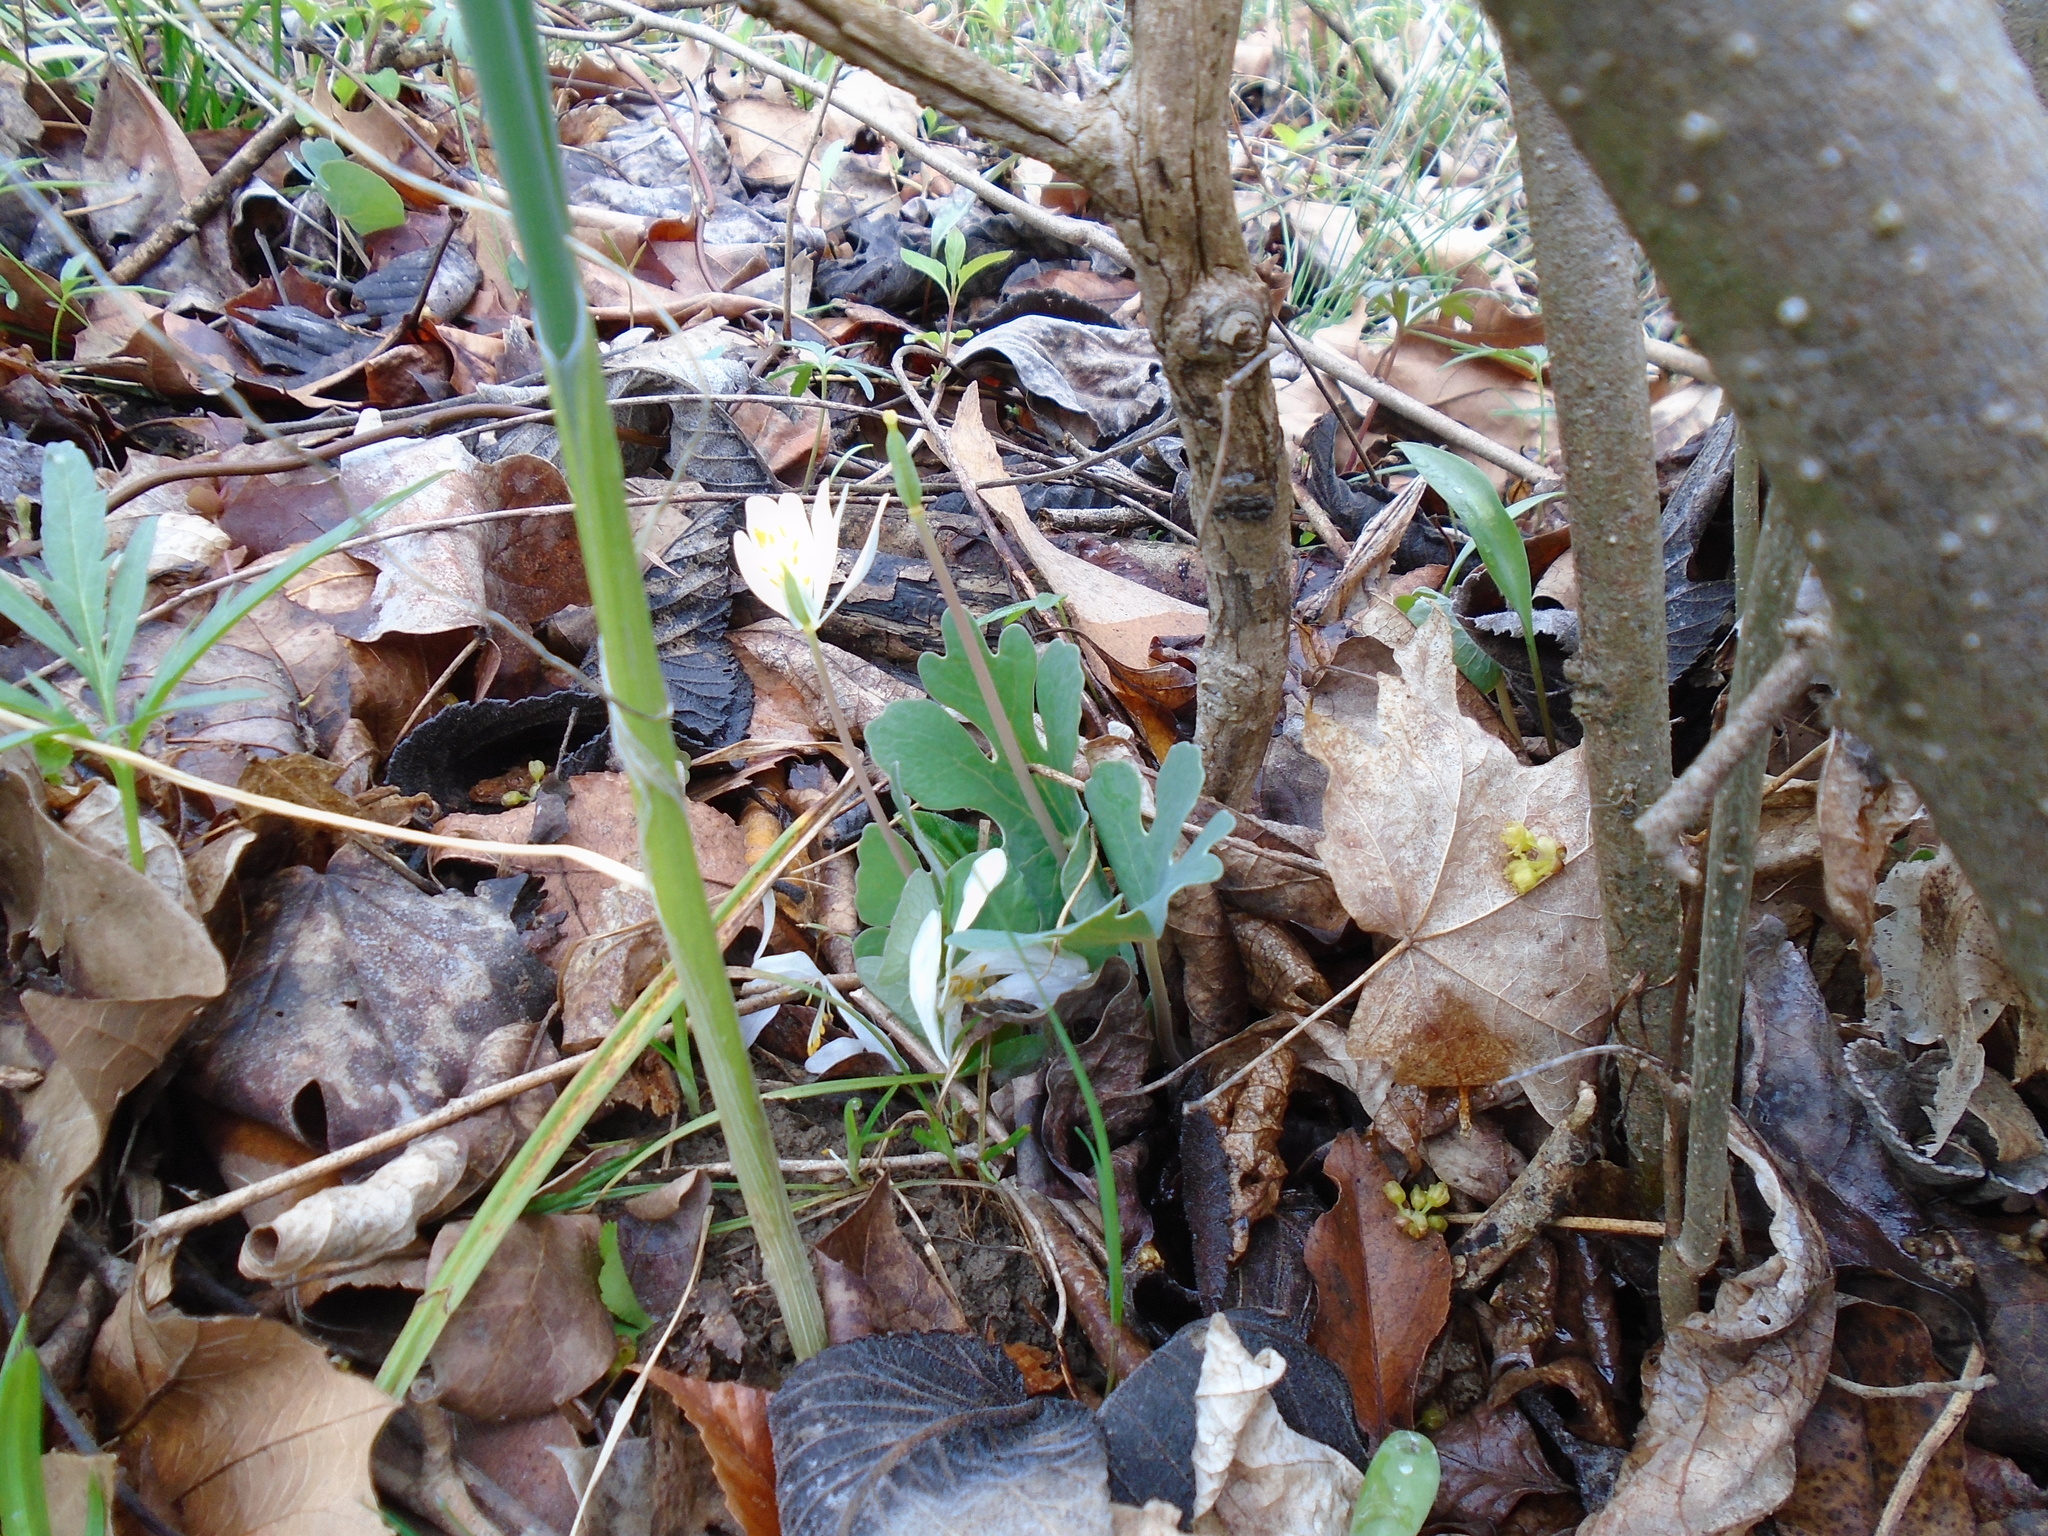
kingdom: Plantae
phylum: Tracheophyta
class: Magnoliopsida
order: Ranunculales
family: Papaveraceae
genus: Sanguinaria
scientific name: Sanguinaria canadensis
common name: Bloodroot
